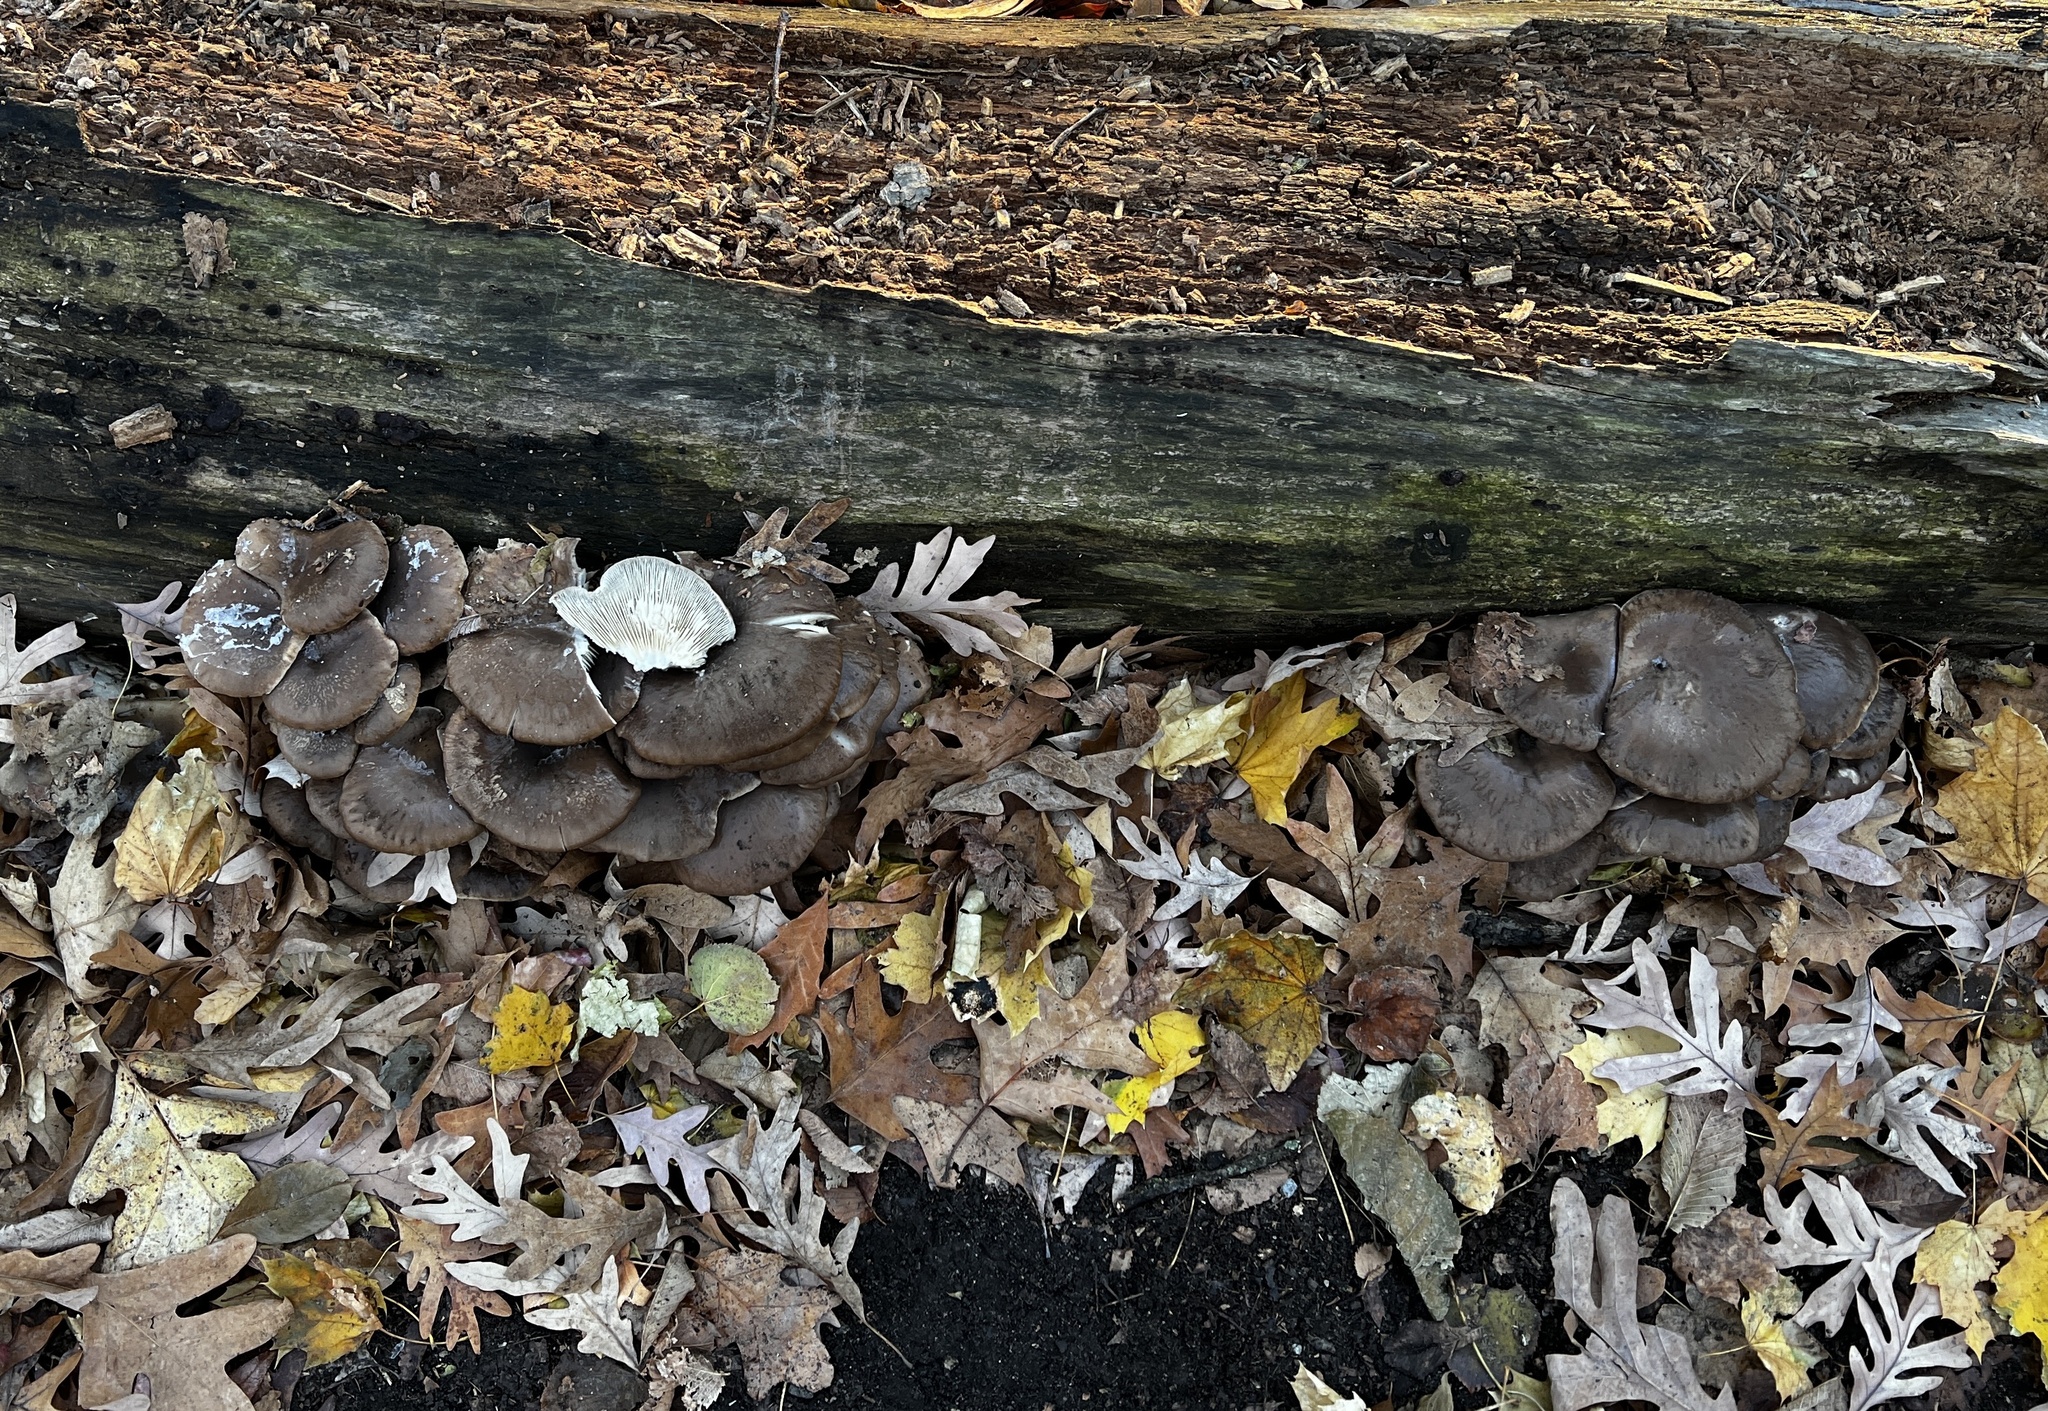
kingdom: Fungi
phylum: Basidiomycota
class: Agaricomycetes
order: Agaricales
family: Pleurotaceae
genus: Pleurotus
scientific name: Pleurotus ostreatus
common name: Oyster mushroom
